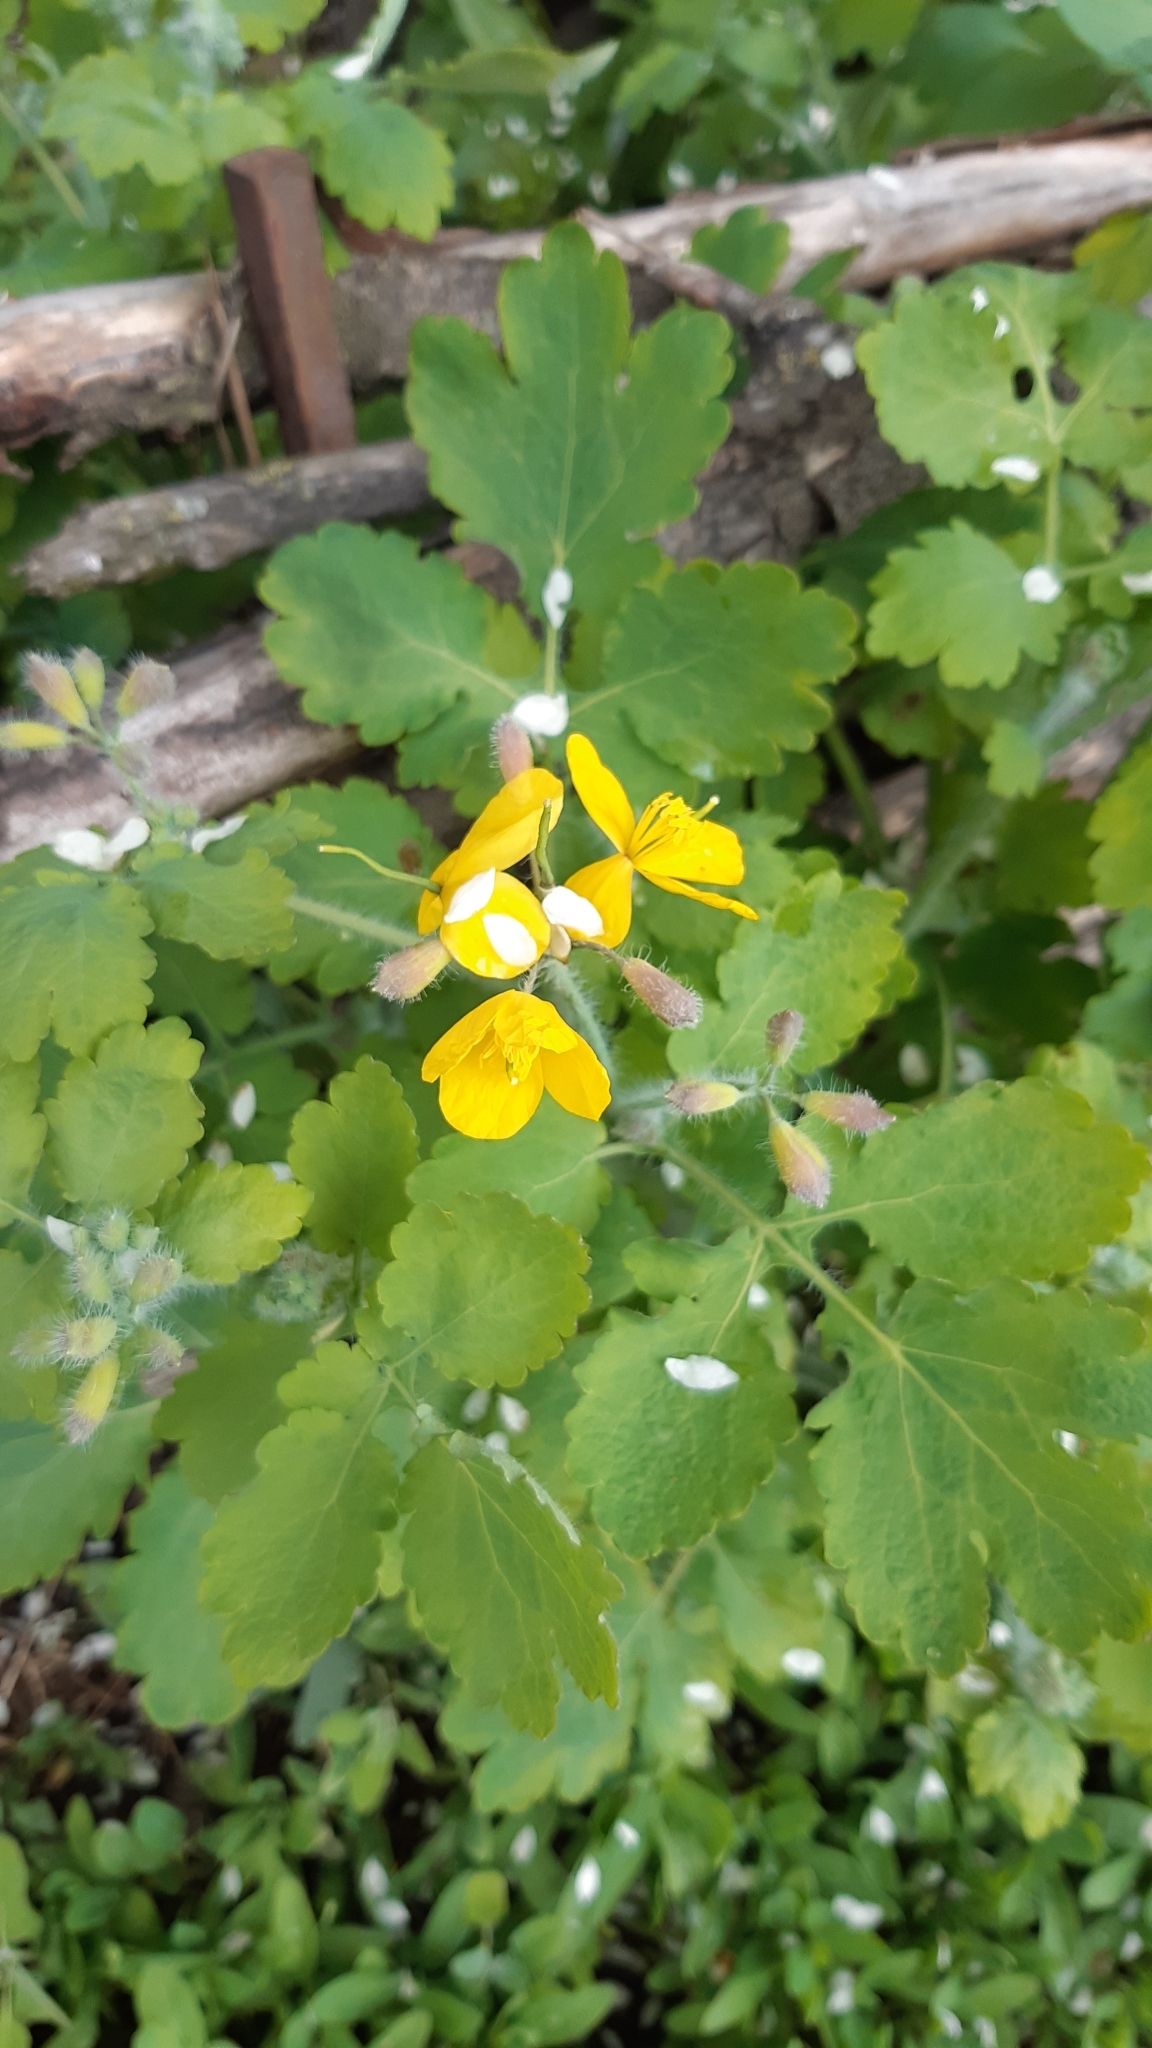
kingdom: Plantae
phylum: Tracheophyta
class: Magnoliopsida
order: Ranunculales
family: Papaveraceae
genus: Chelidonium
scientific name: Chelidonium majus
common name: Greater celandine
